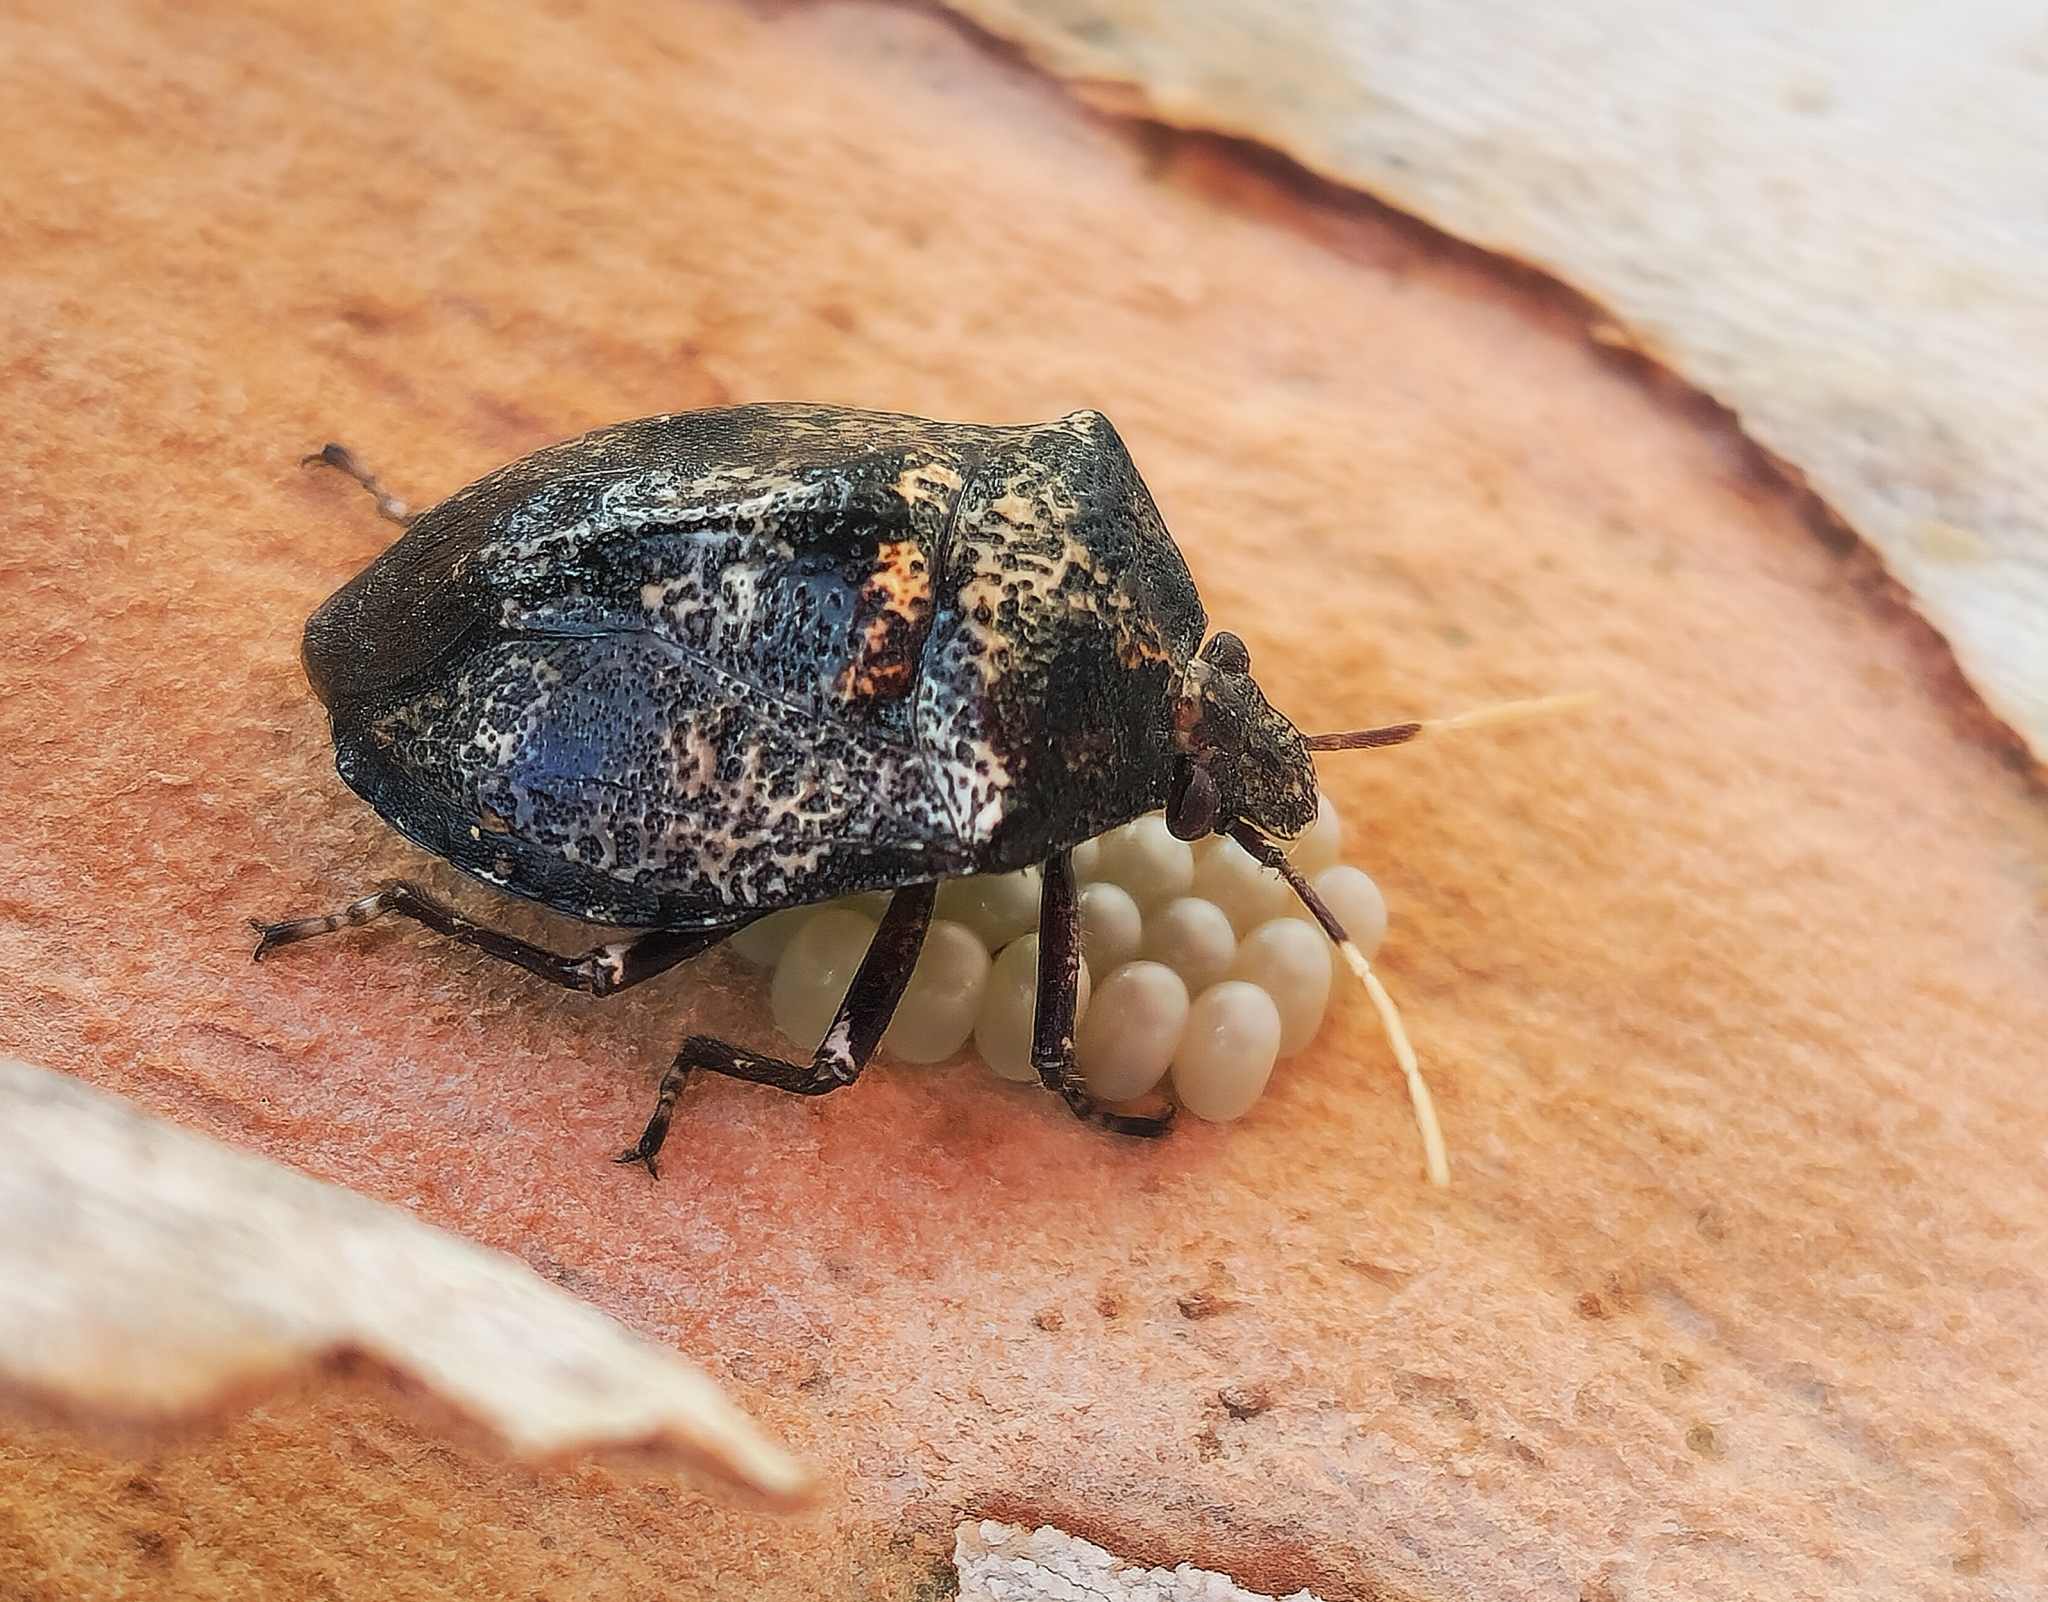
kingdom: Animalia
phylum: Arthropoda
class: Insecta
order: Hemiptera
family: Pentatomidae
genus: Antiteuchus
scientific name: Antiteuchus mixtus
